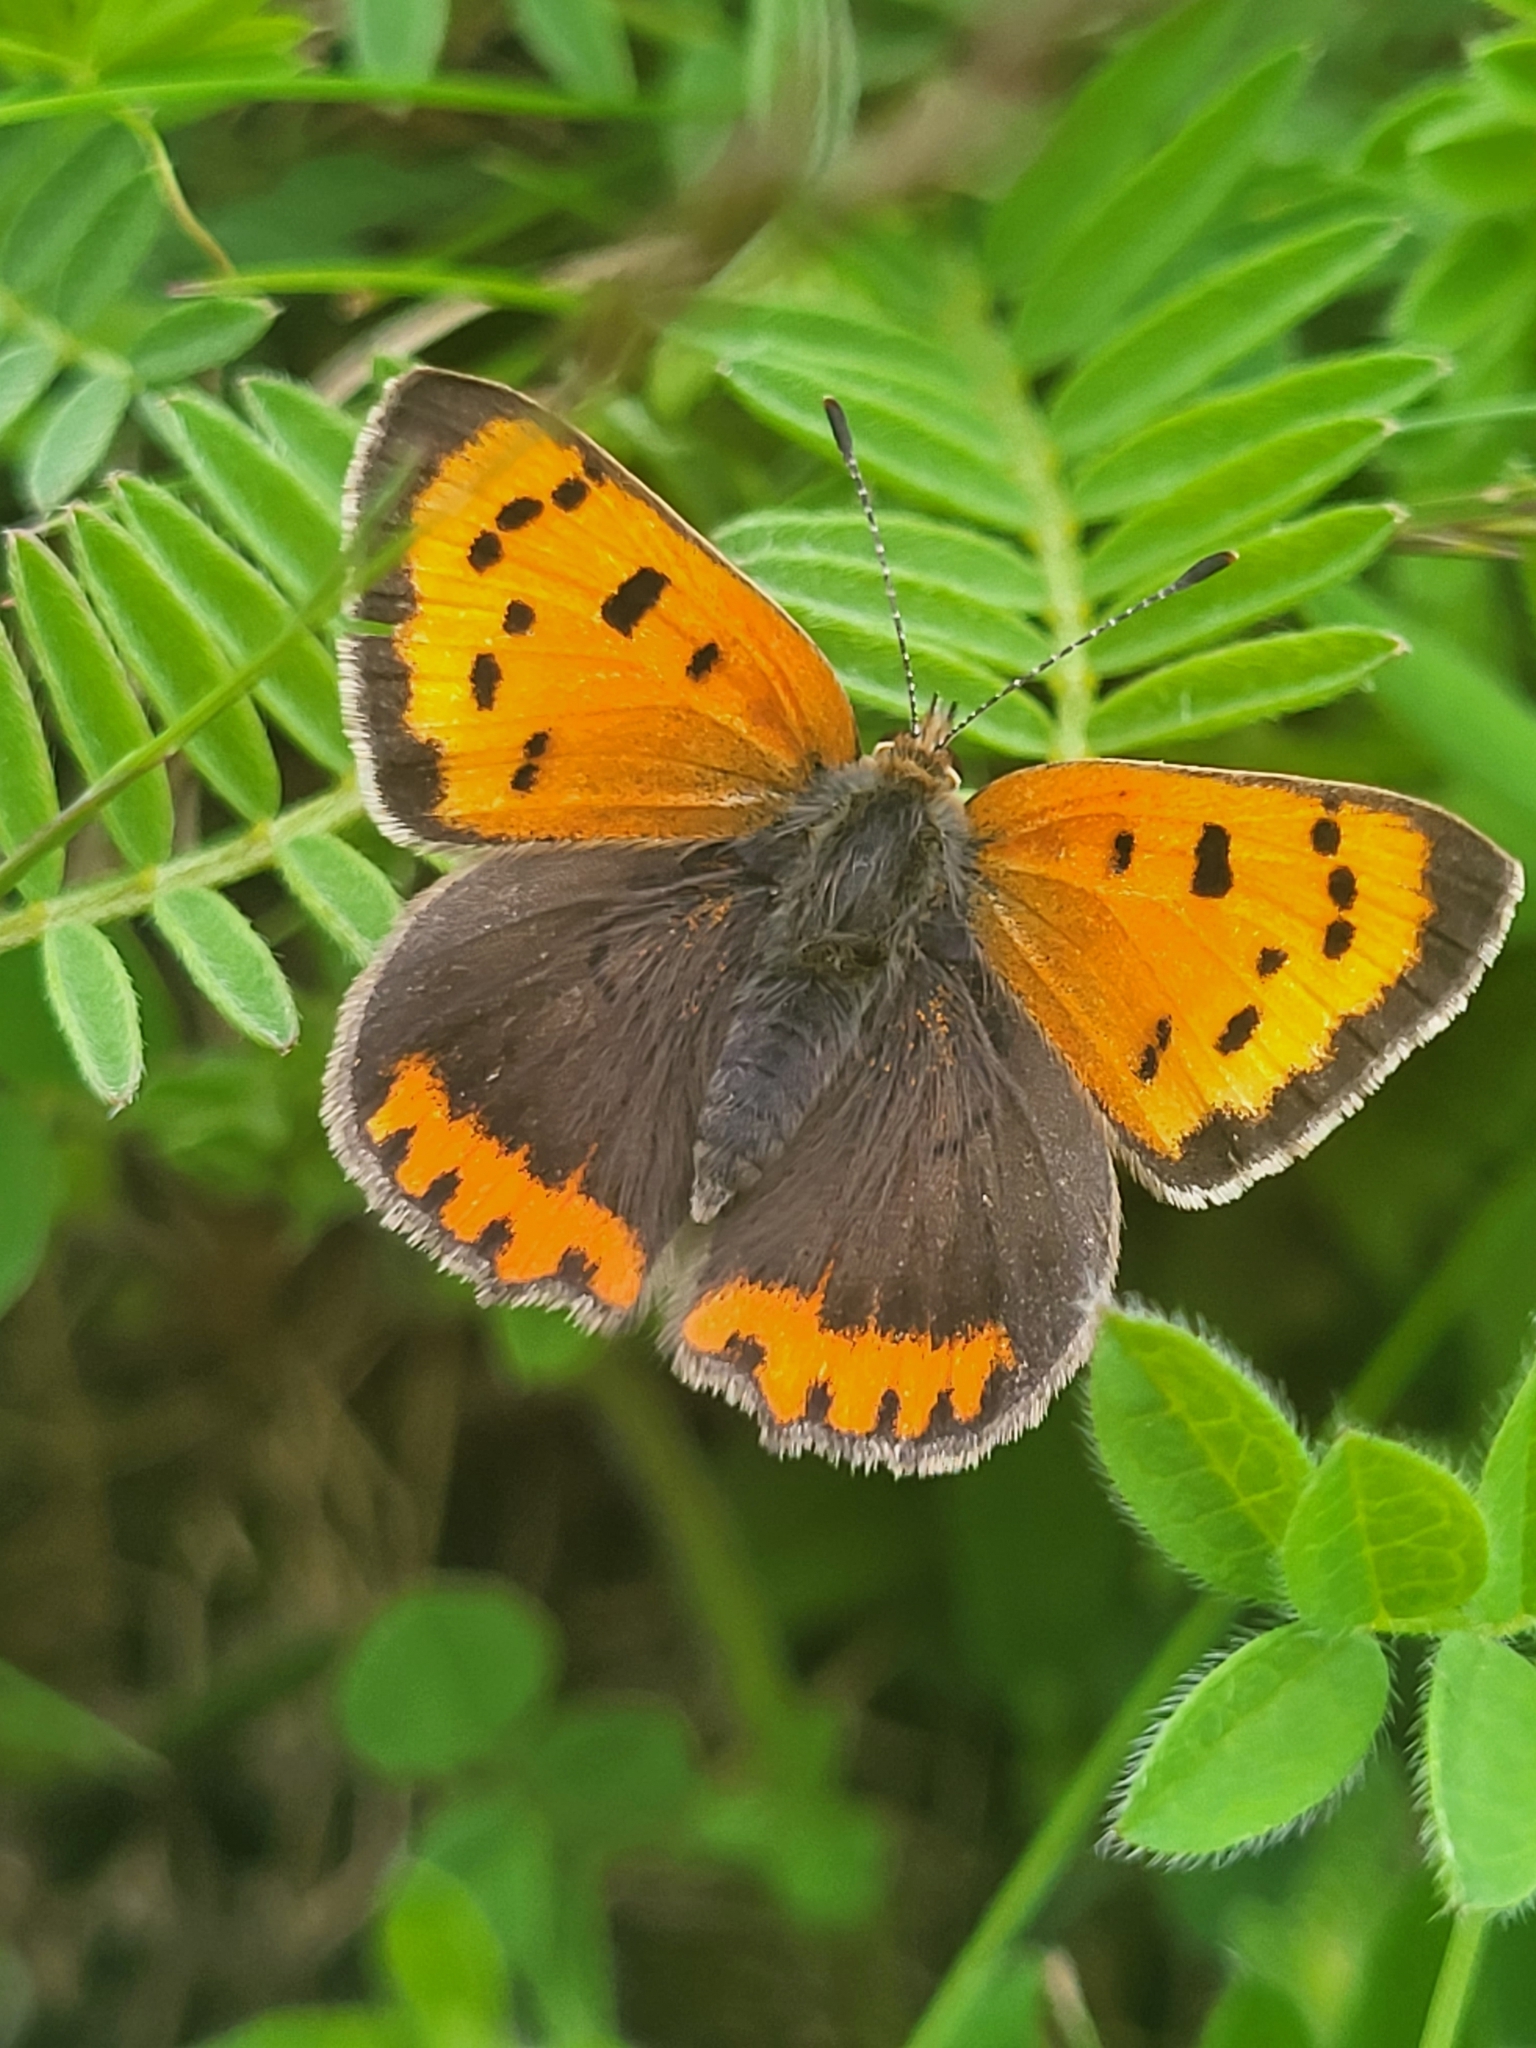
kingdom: Animalia
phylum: Arthropoda
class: Insecta
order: Lepidoptera
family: Lycaenidae
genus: Lycaena
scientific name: Lycaena phlaeas
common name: Small copper
